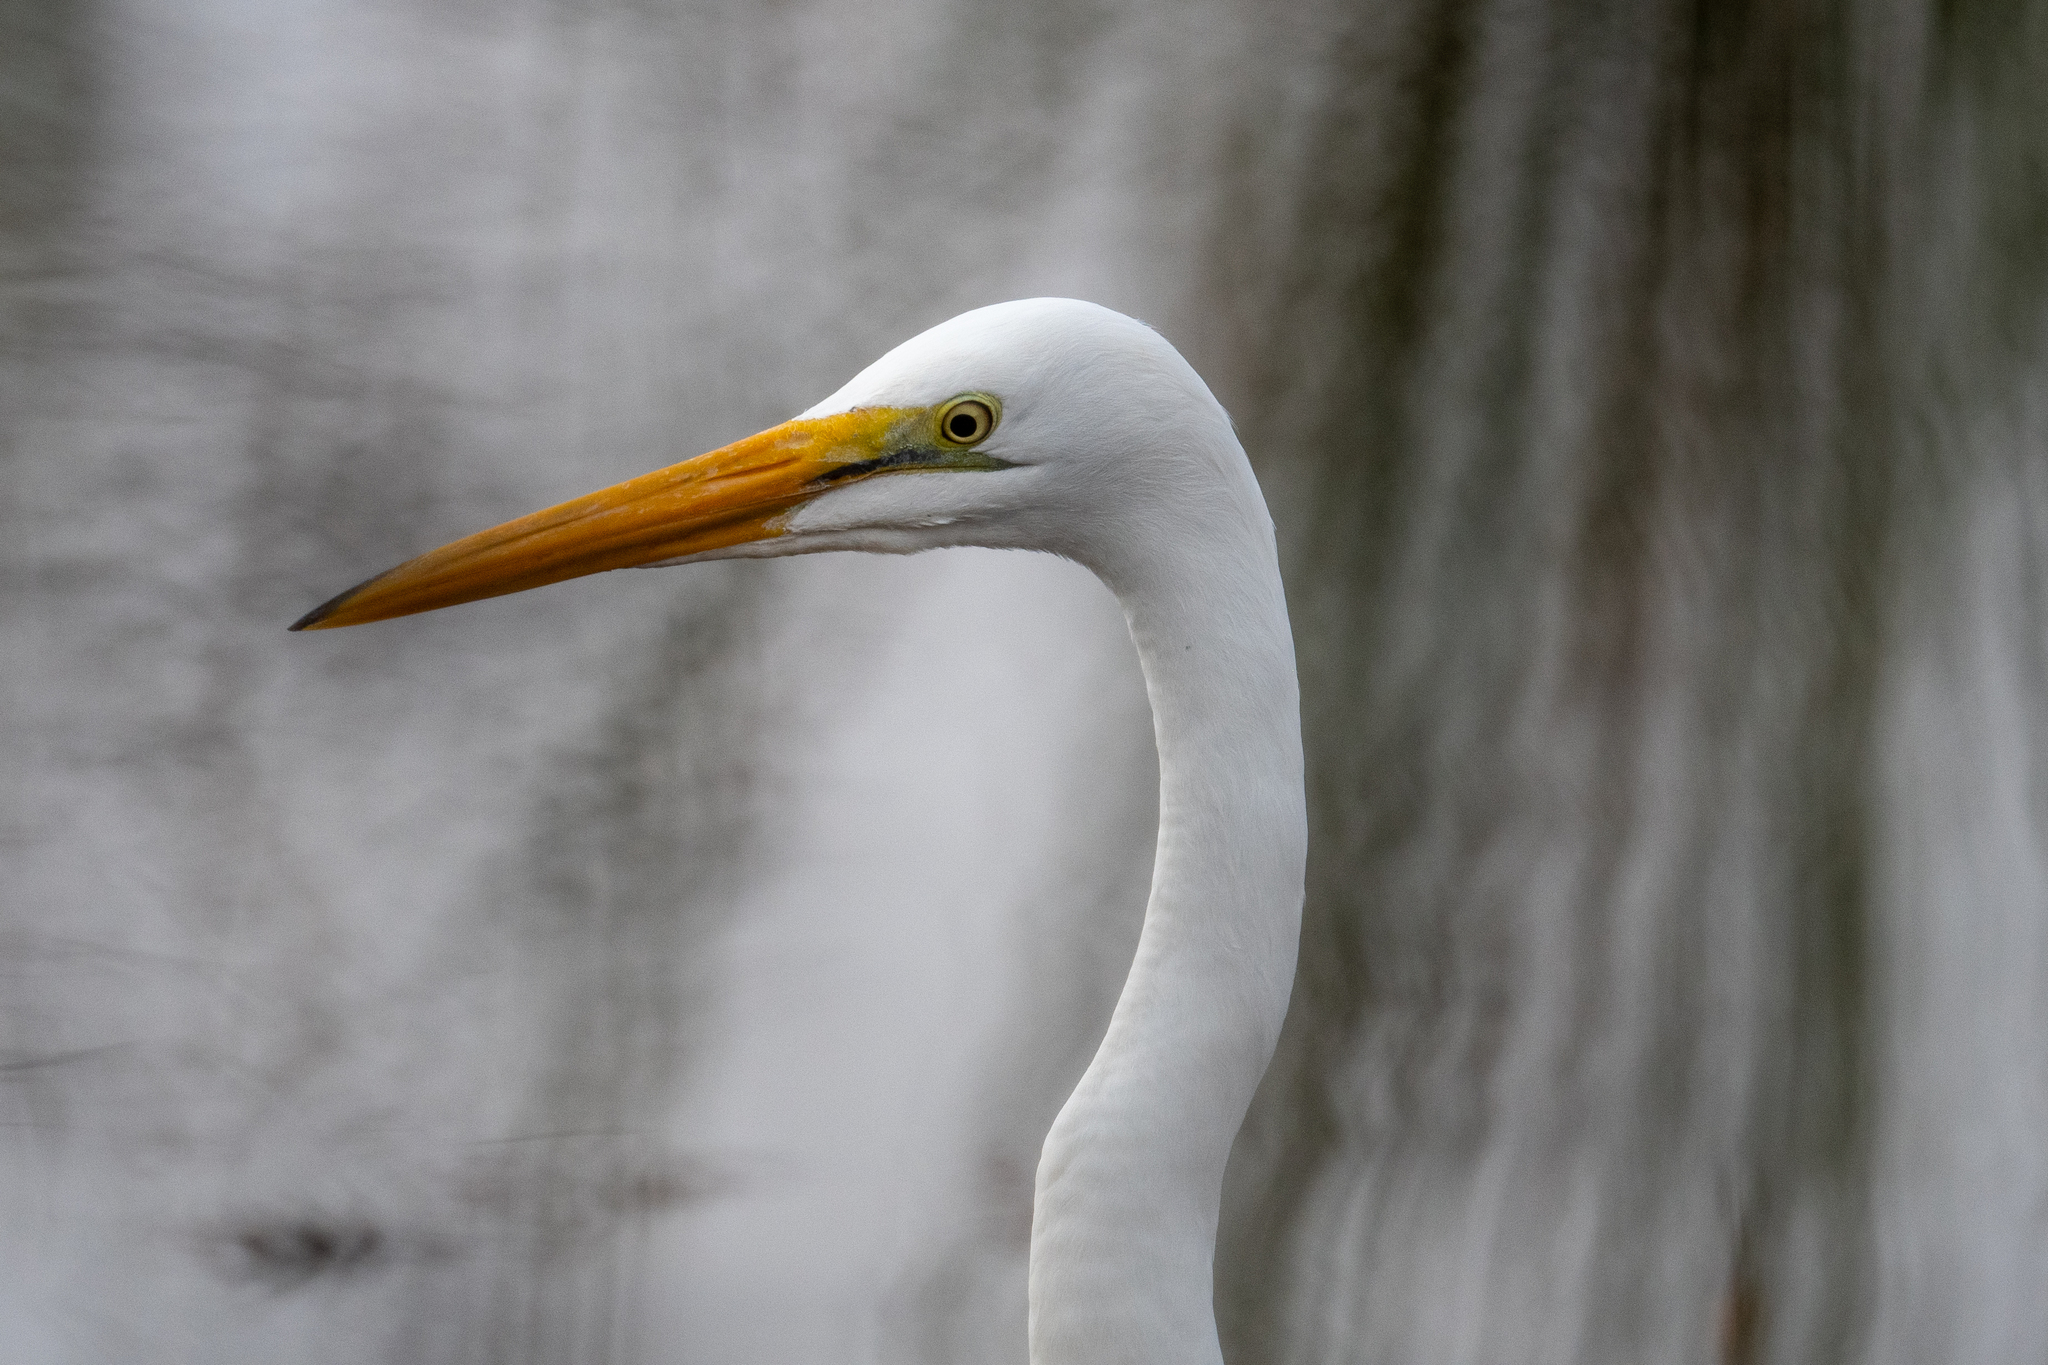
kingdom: Animalia
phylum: Chordata
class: Aves
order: Pelecaniformes
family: Ardeidae
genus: Ardea
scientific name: Ardea alba
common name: Great egret
